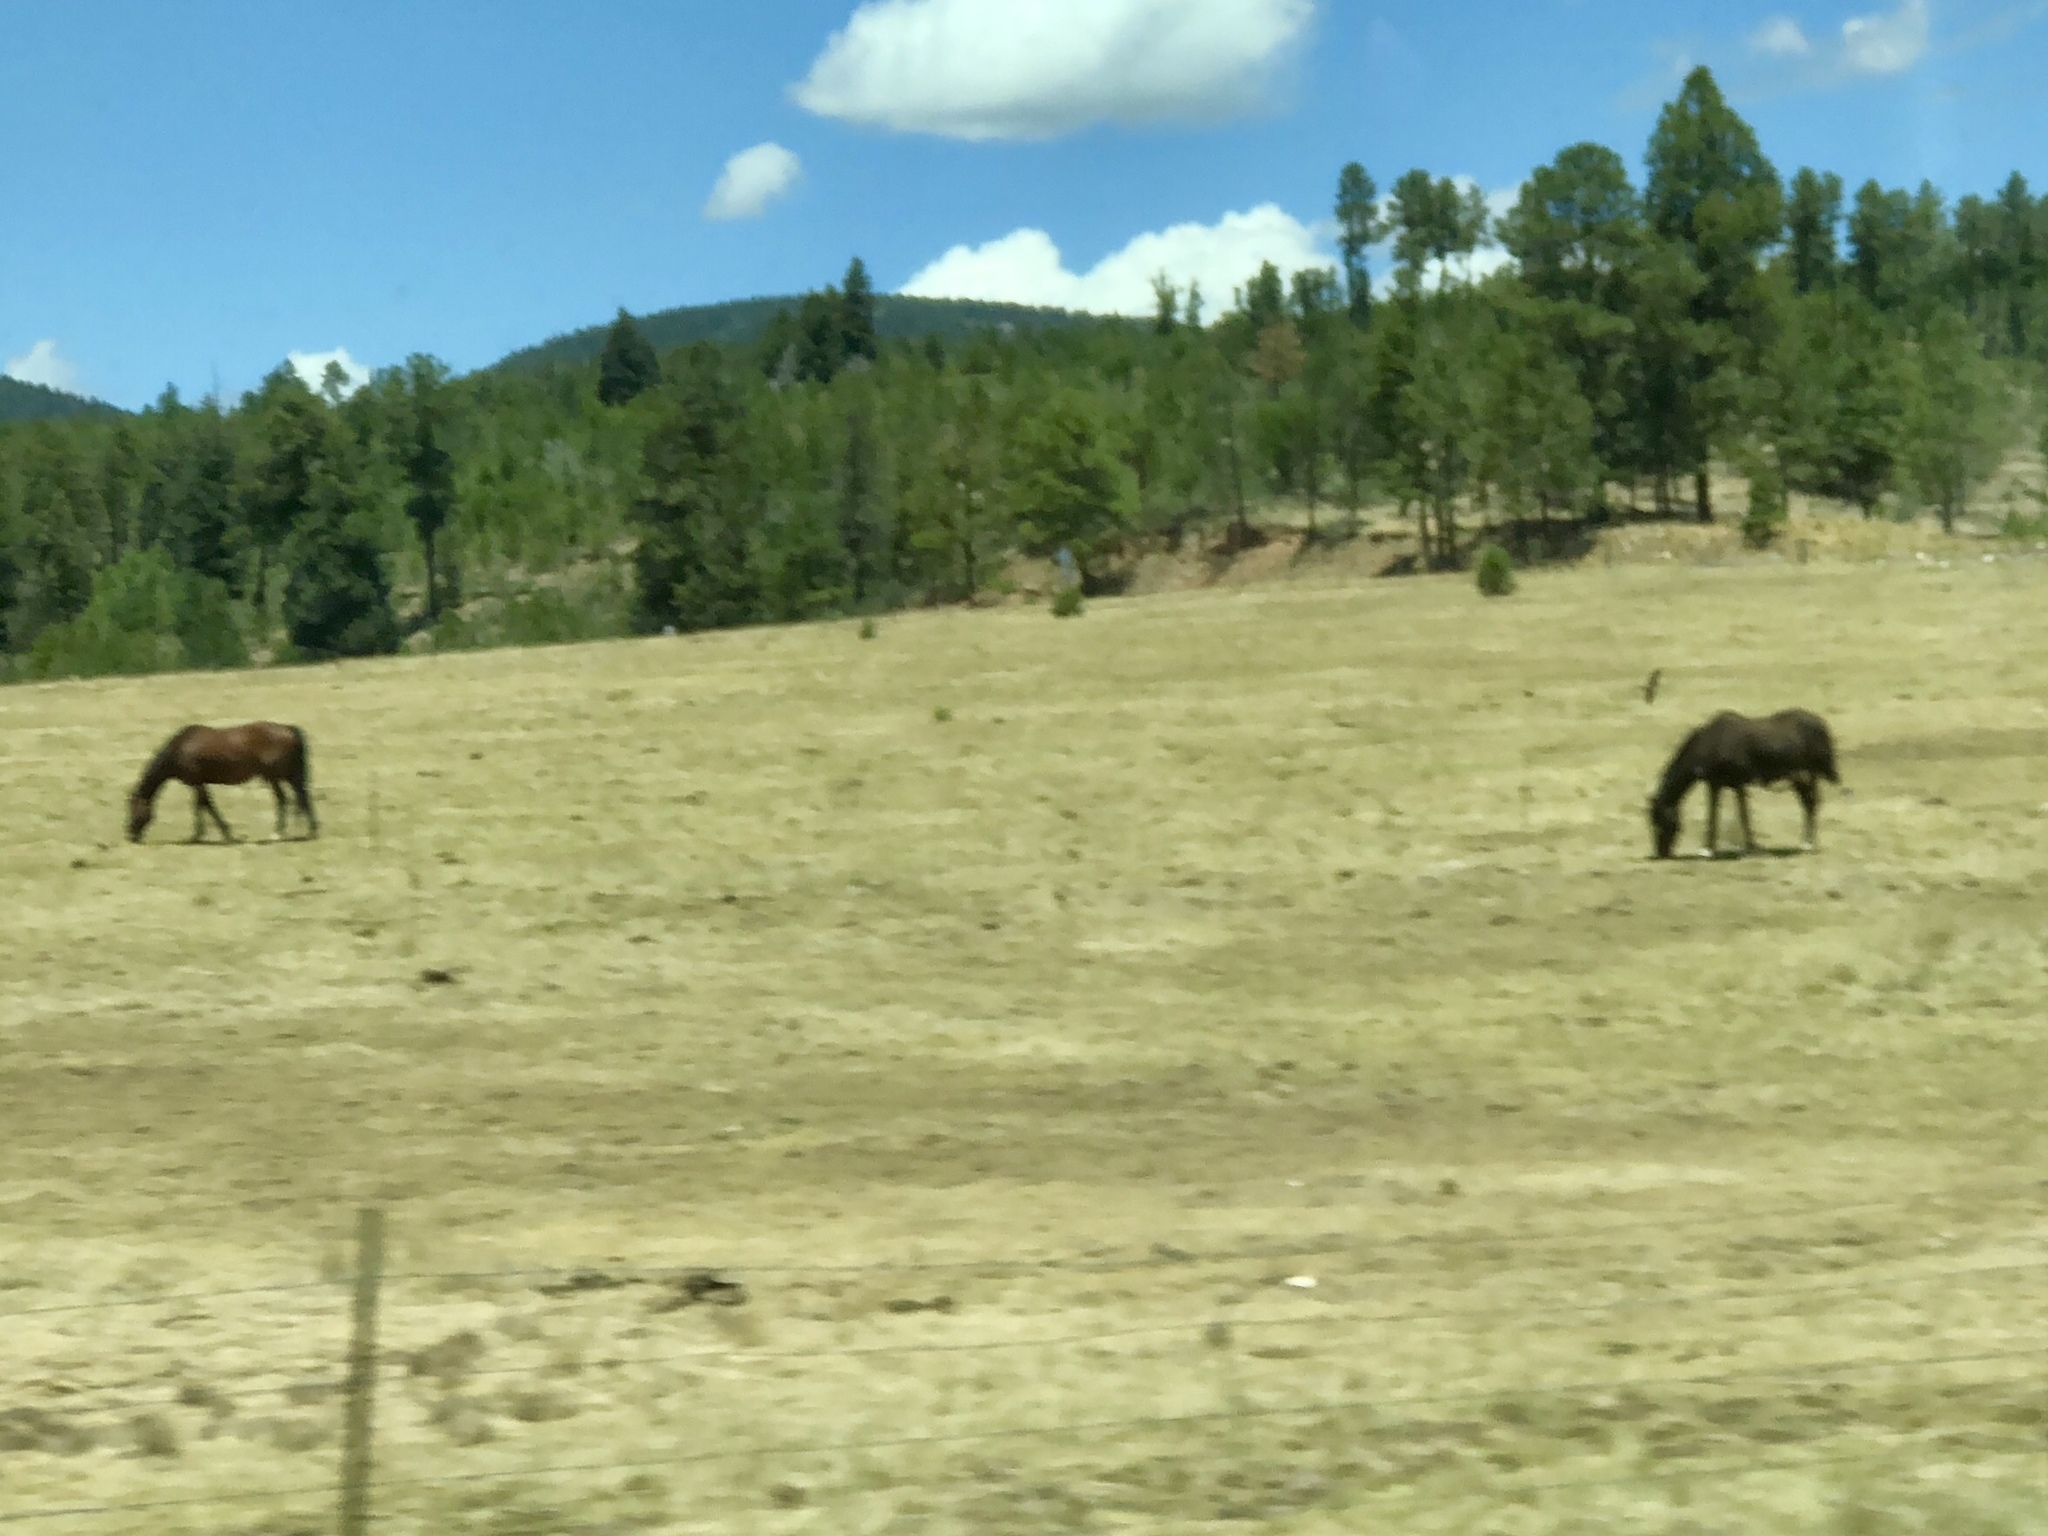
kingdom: Animalia
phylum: Chordata
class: Mammalia
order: Perissodactyla
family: Equidae
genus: Equus
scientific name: Equus caballus
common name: Horse
